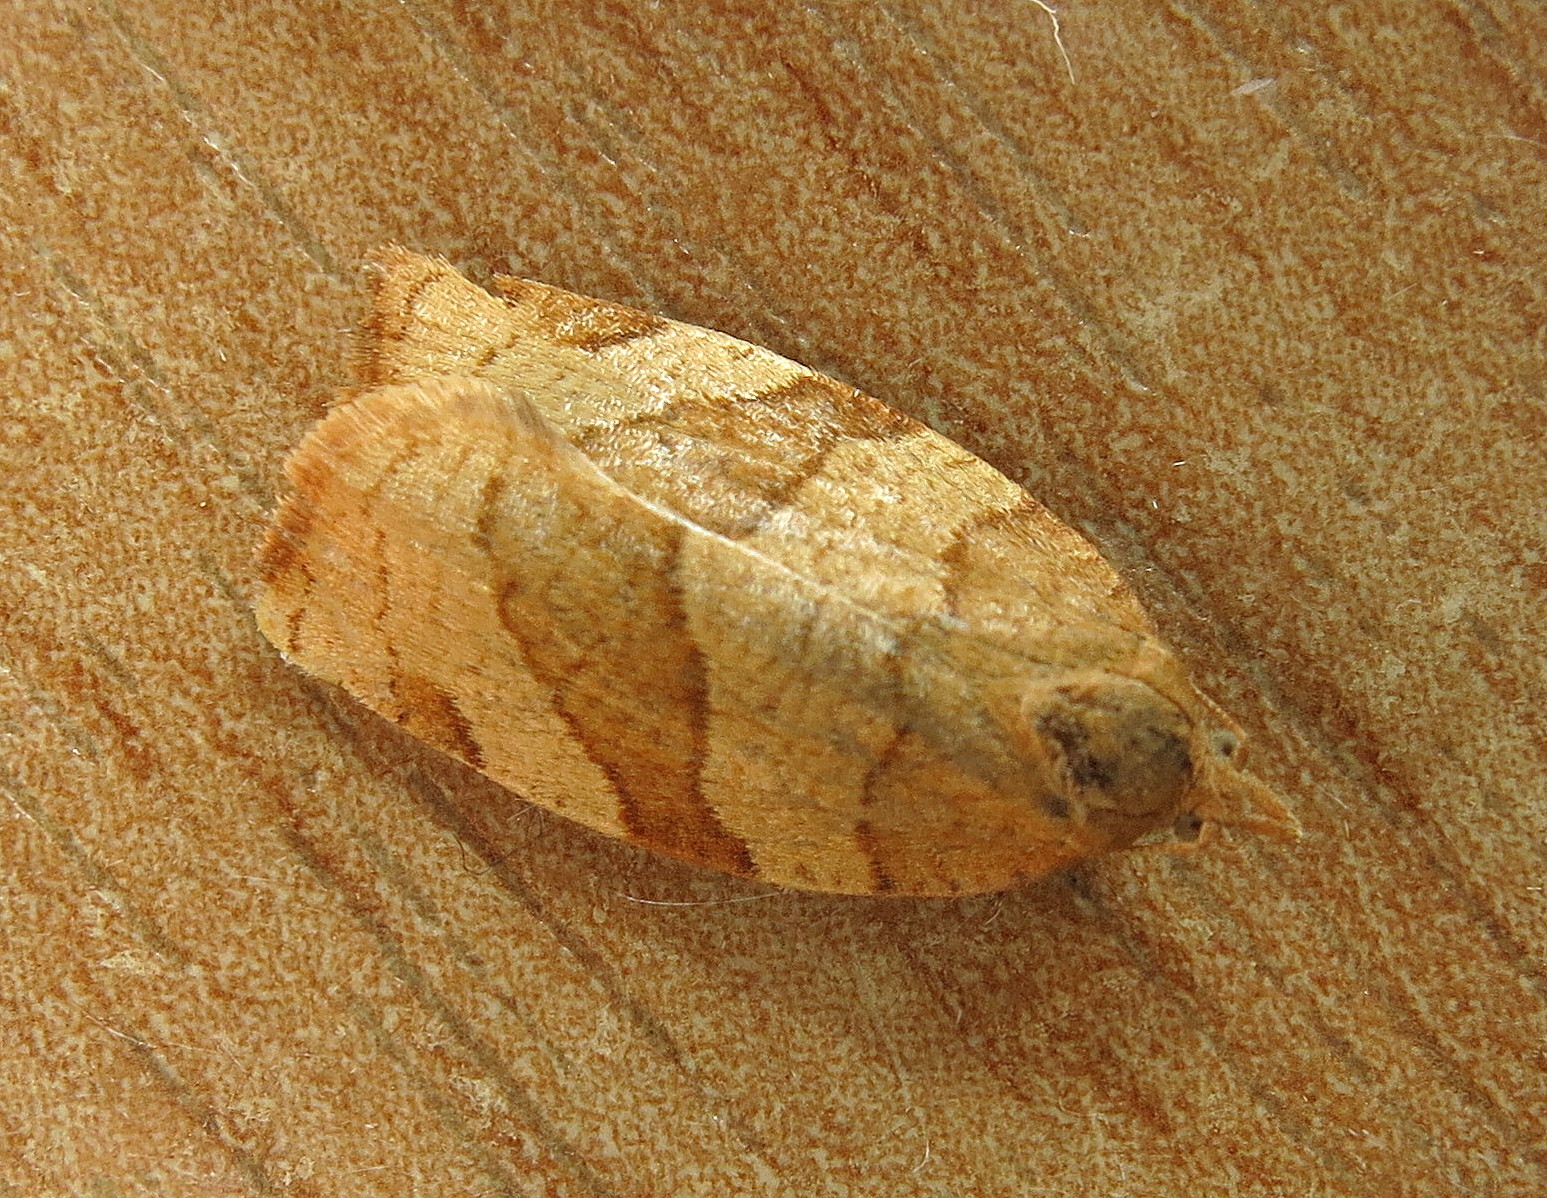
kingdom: Animalia
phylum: Arthropoda
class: Insecta
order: Lepidoptera
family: Tortricidae
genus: Pandemis
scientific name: Pandemis cerasana
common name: Barred fruit-tree tortrix
